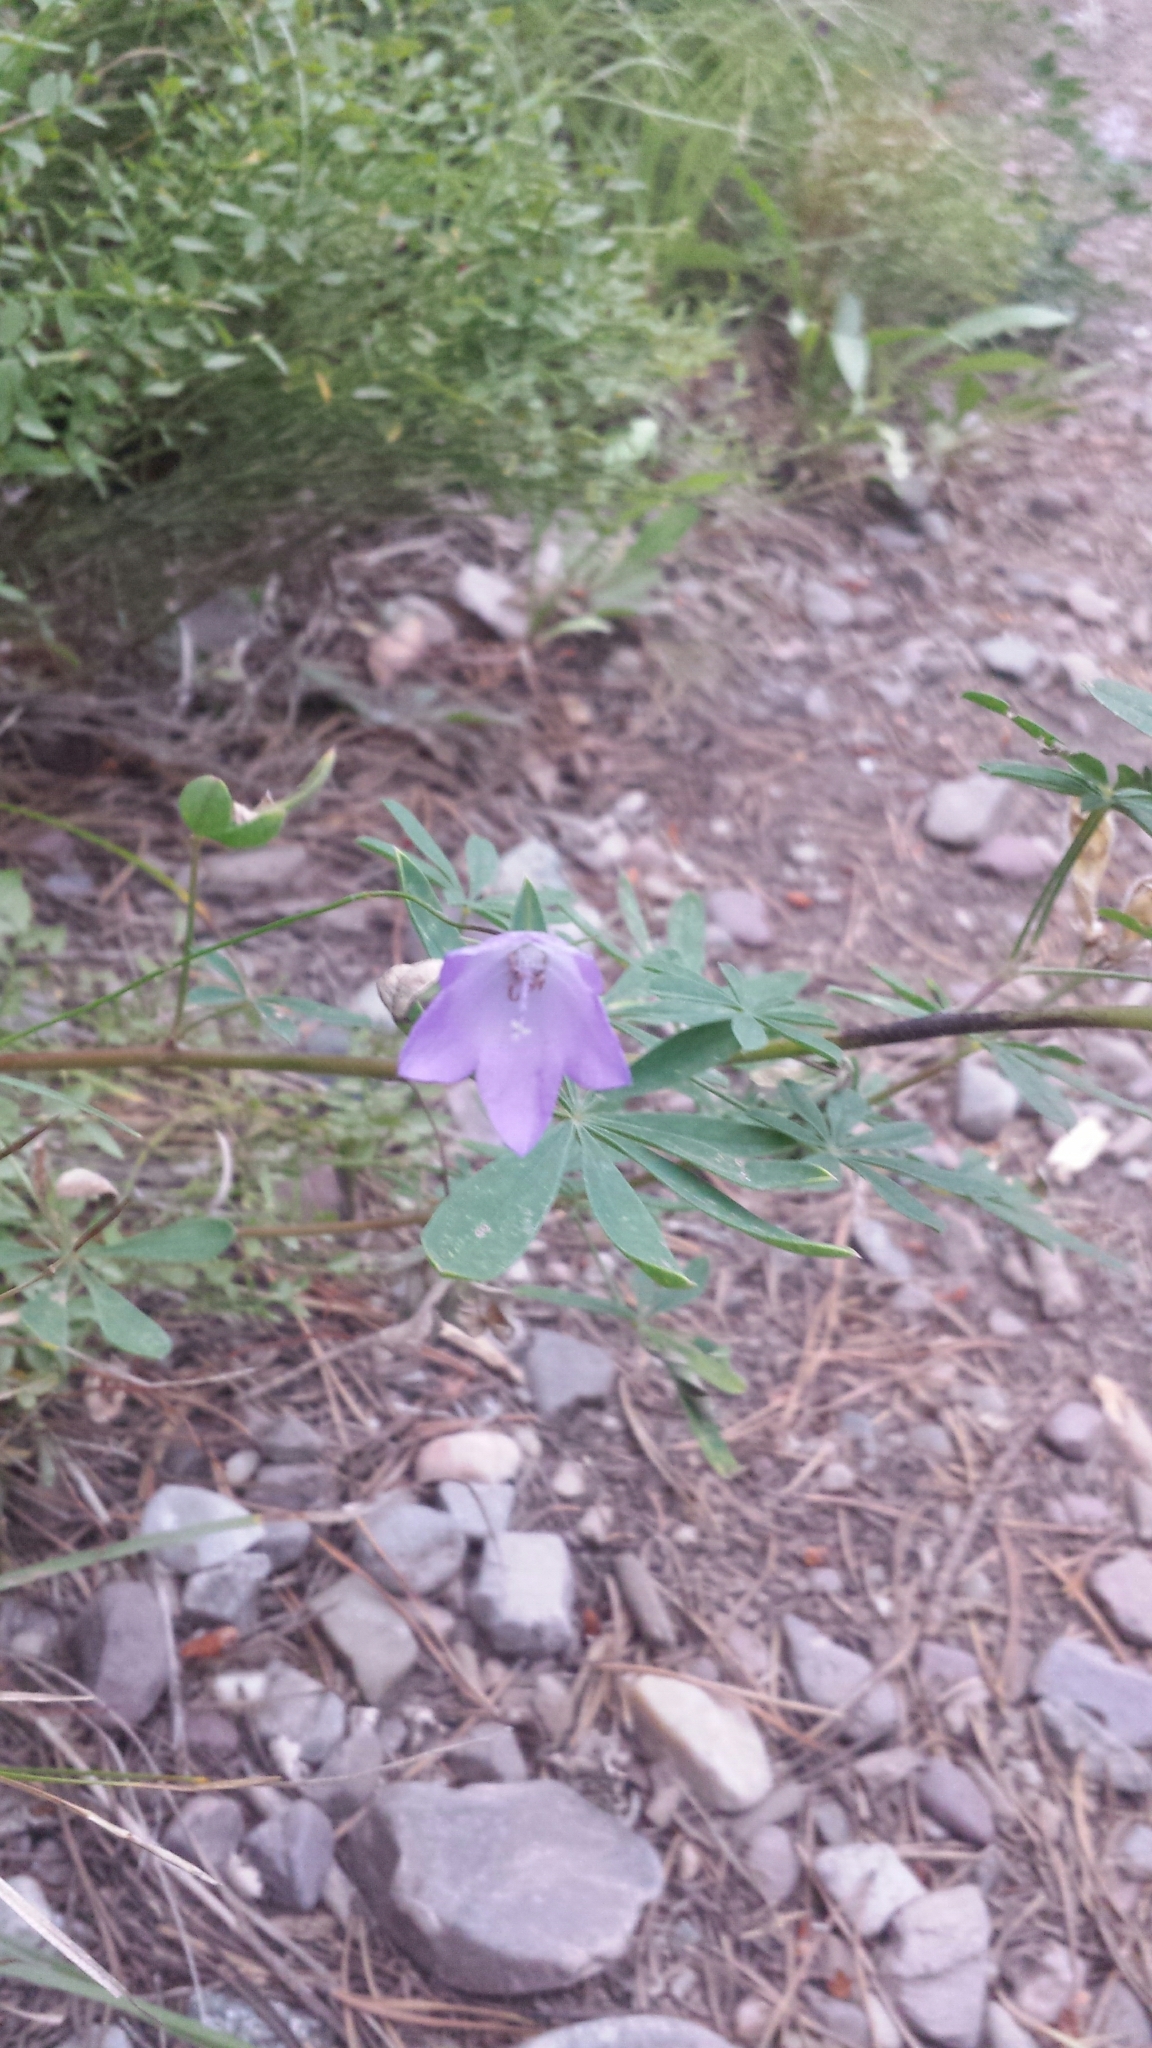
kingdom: Plantae
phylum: Tracheophyta
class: Magnoliopsida
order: Asterales
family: Campanulaceae
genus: Campanula
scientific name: Campanula petiolata
